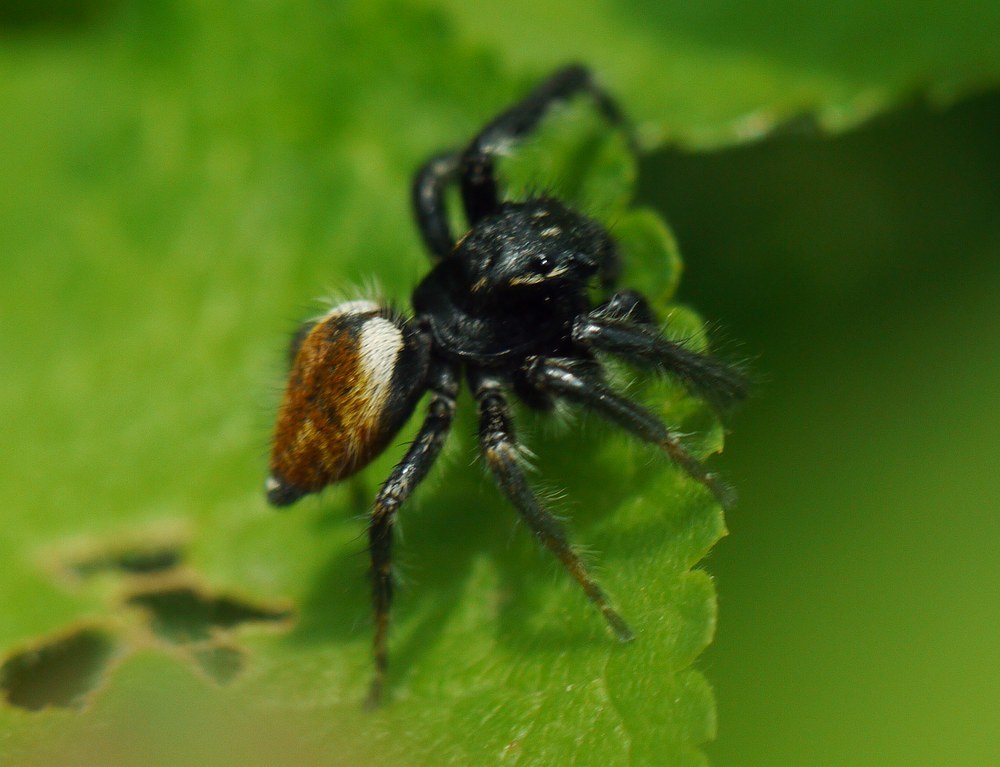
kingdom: Animalia
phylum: Arthropoda
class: Arachnida
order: Araneae
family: Salticidae
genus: Carrhotus
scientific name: Carrhotus xanthogramma
